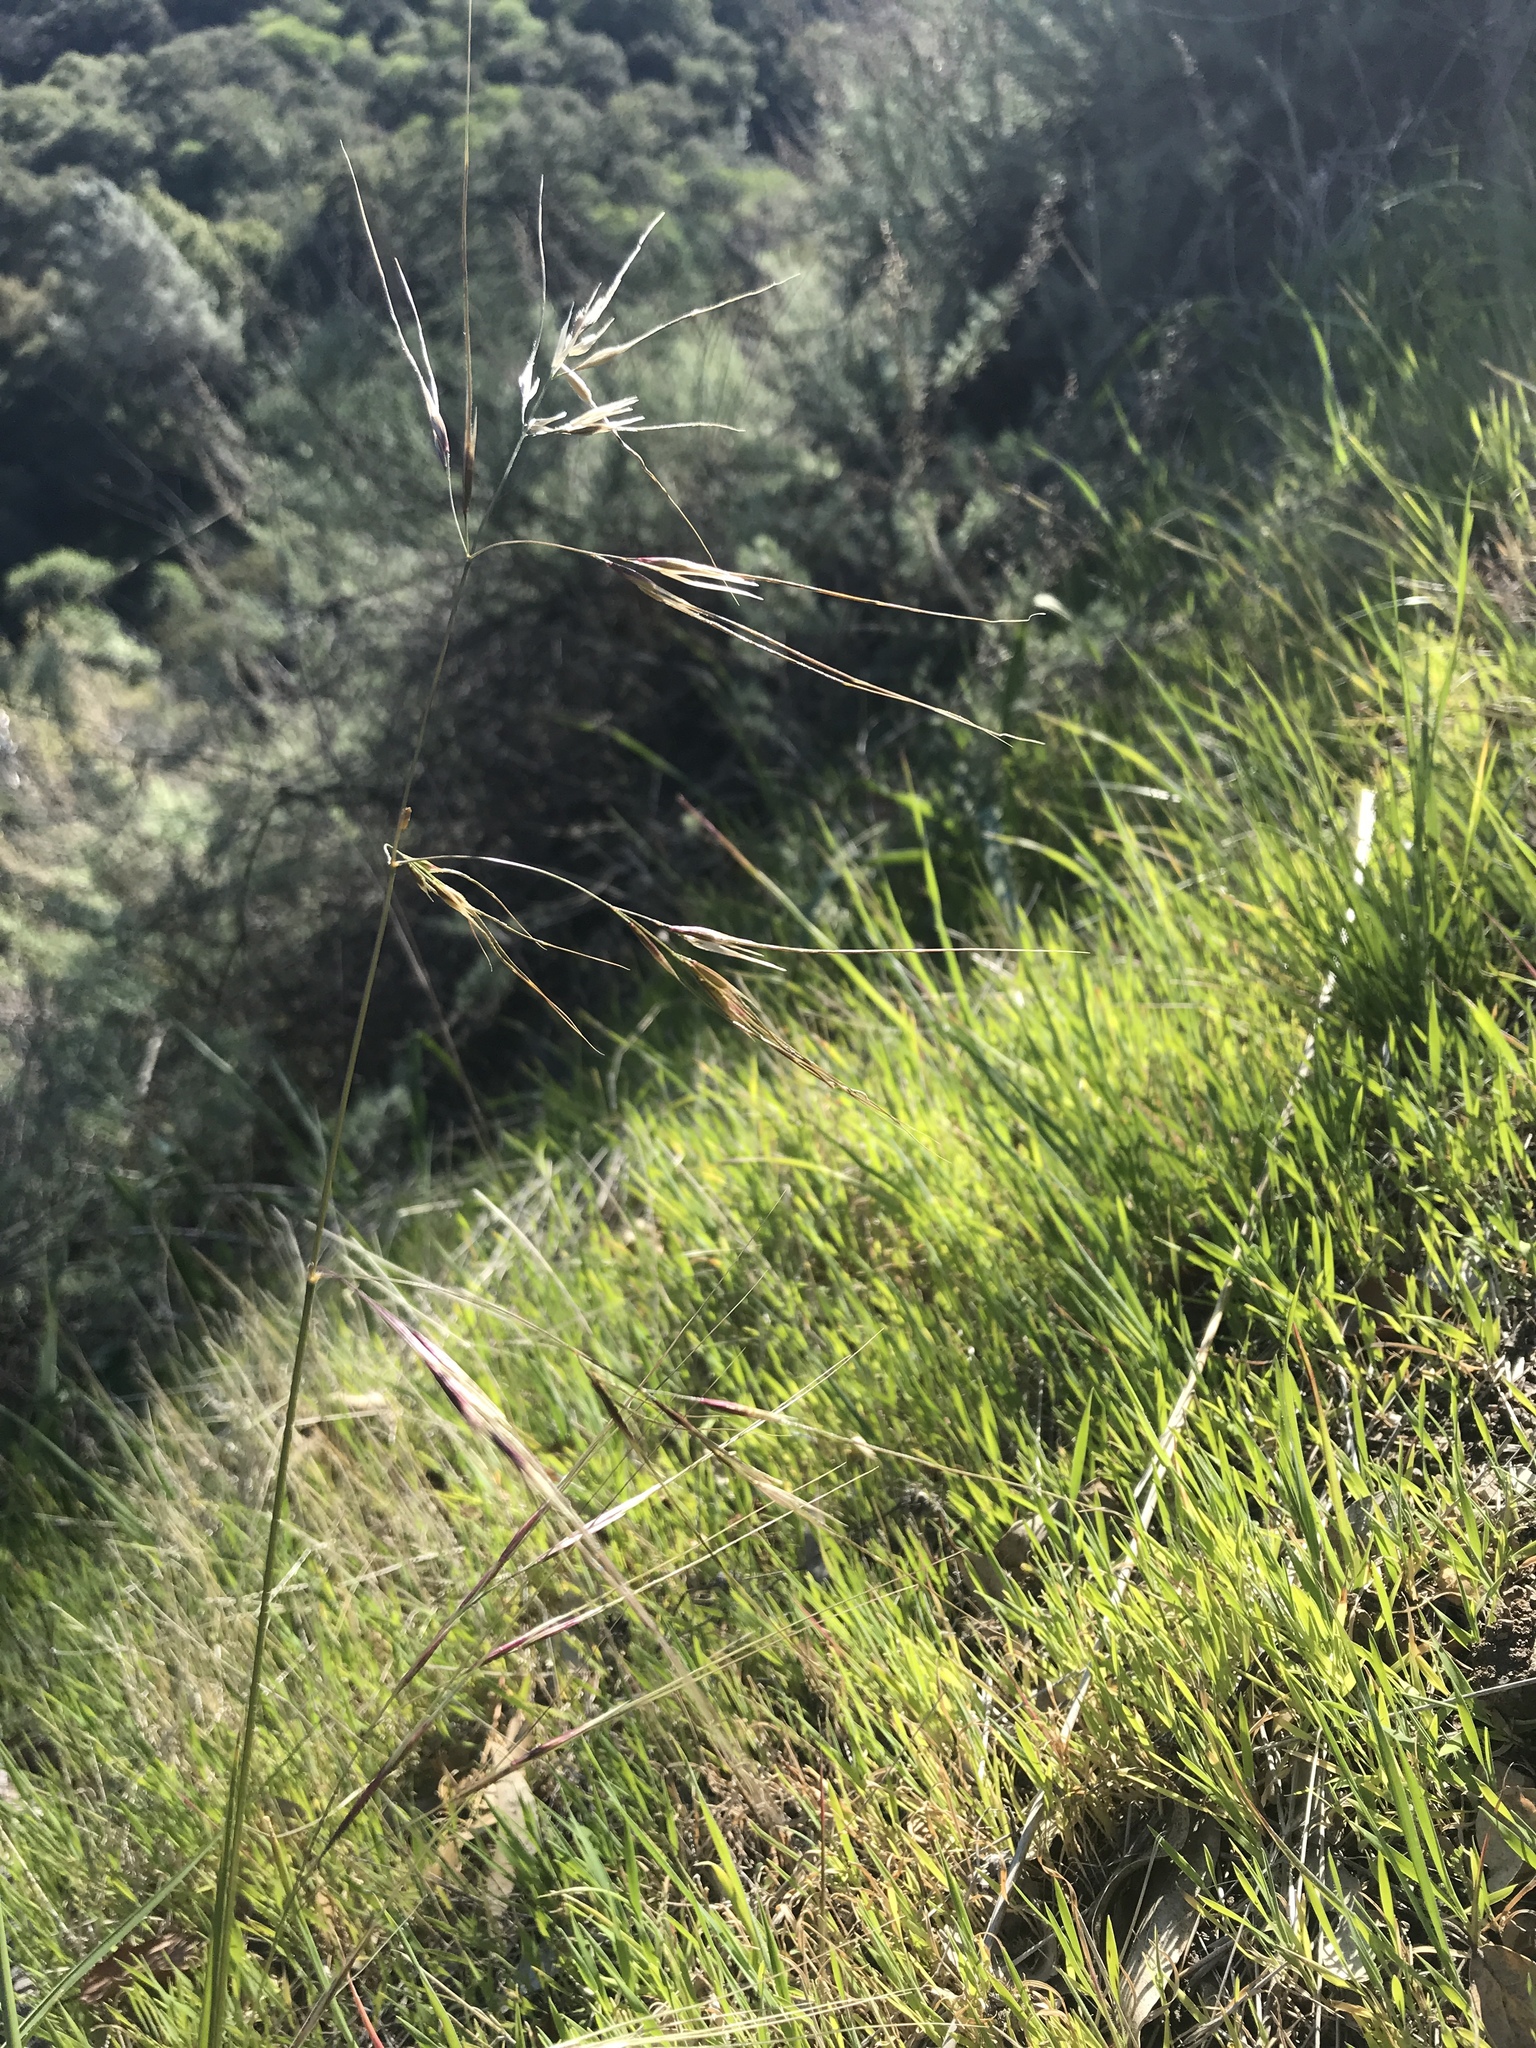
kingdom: Plantae
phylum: Tracheophyta
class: Liliopsida
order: Poales
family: Poaceae
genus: Nassella
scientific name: Nassella pulchra
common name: Purple needlegrass
